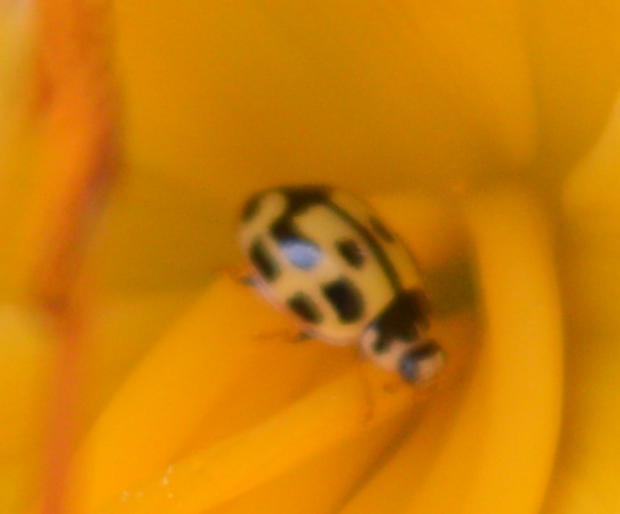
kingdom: Animalia
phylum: Arthropoda
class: Insecta
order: Coleoptera
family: Coccinellidae
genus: Propylaea
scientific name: Propylaea quatuordecimpunctata
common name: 14-spotted ladybird beetle
